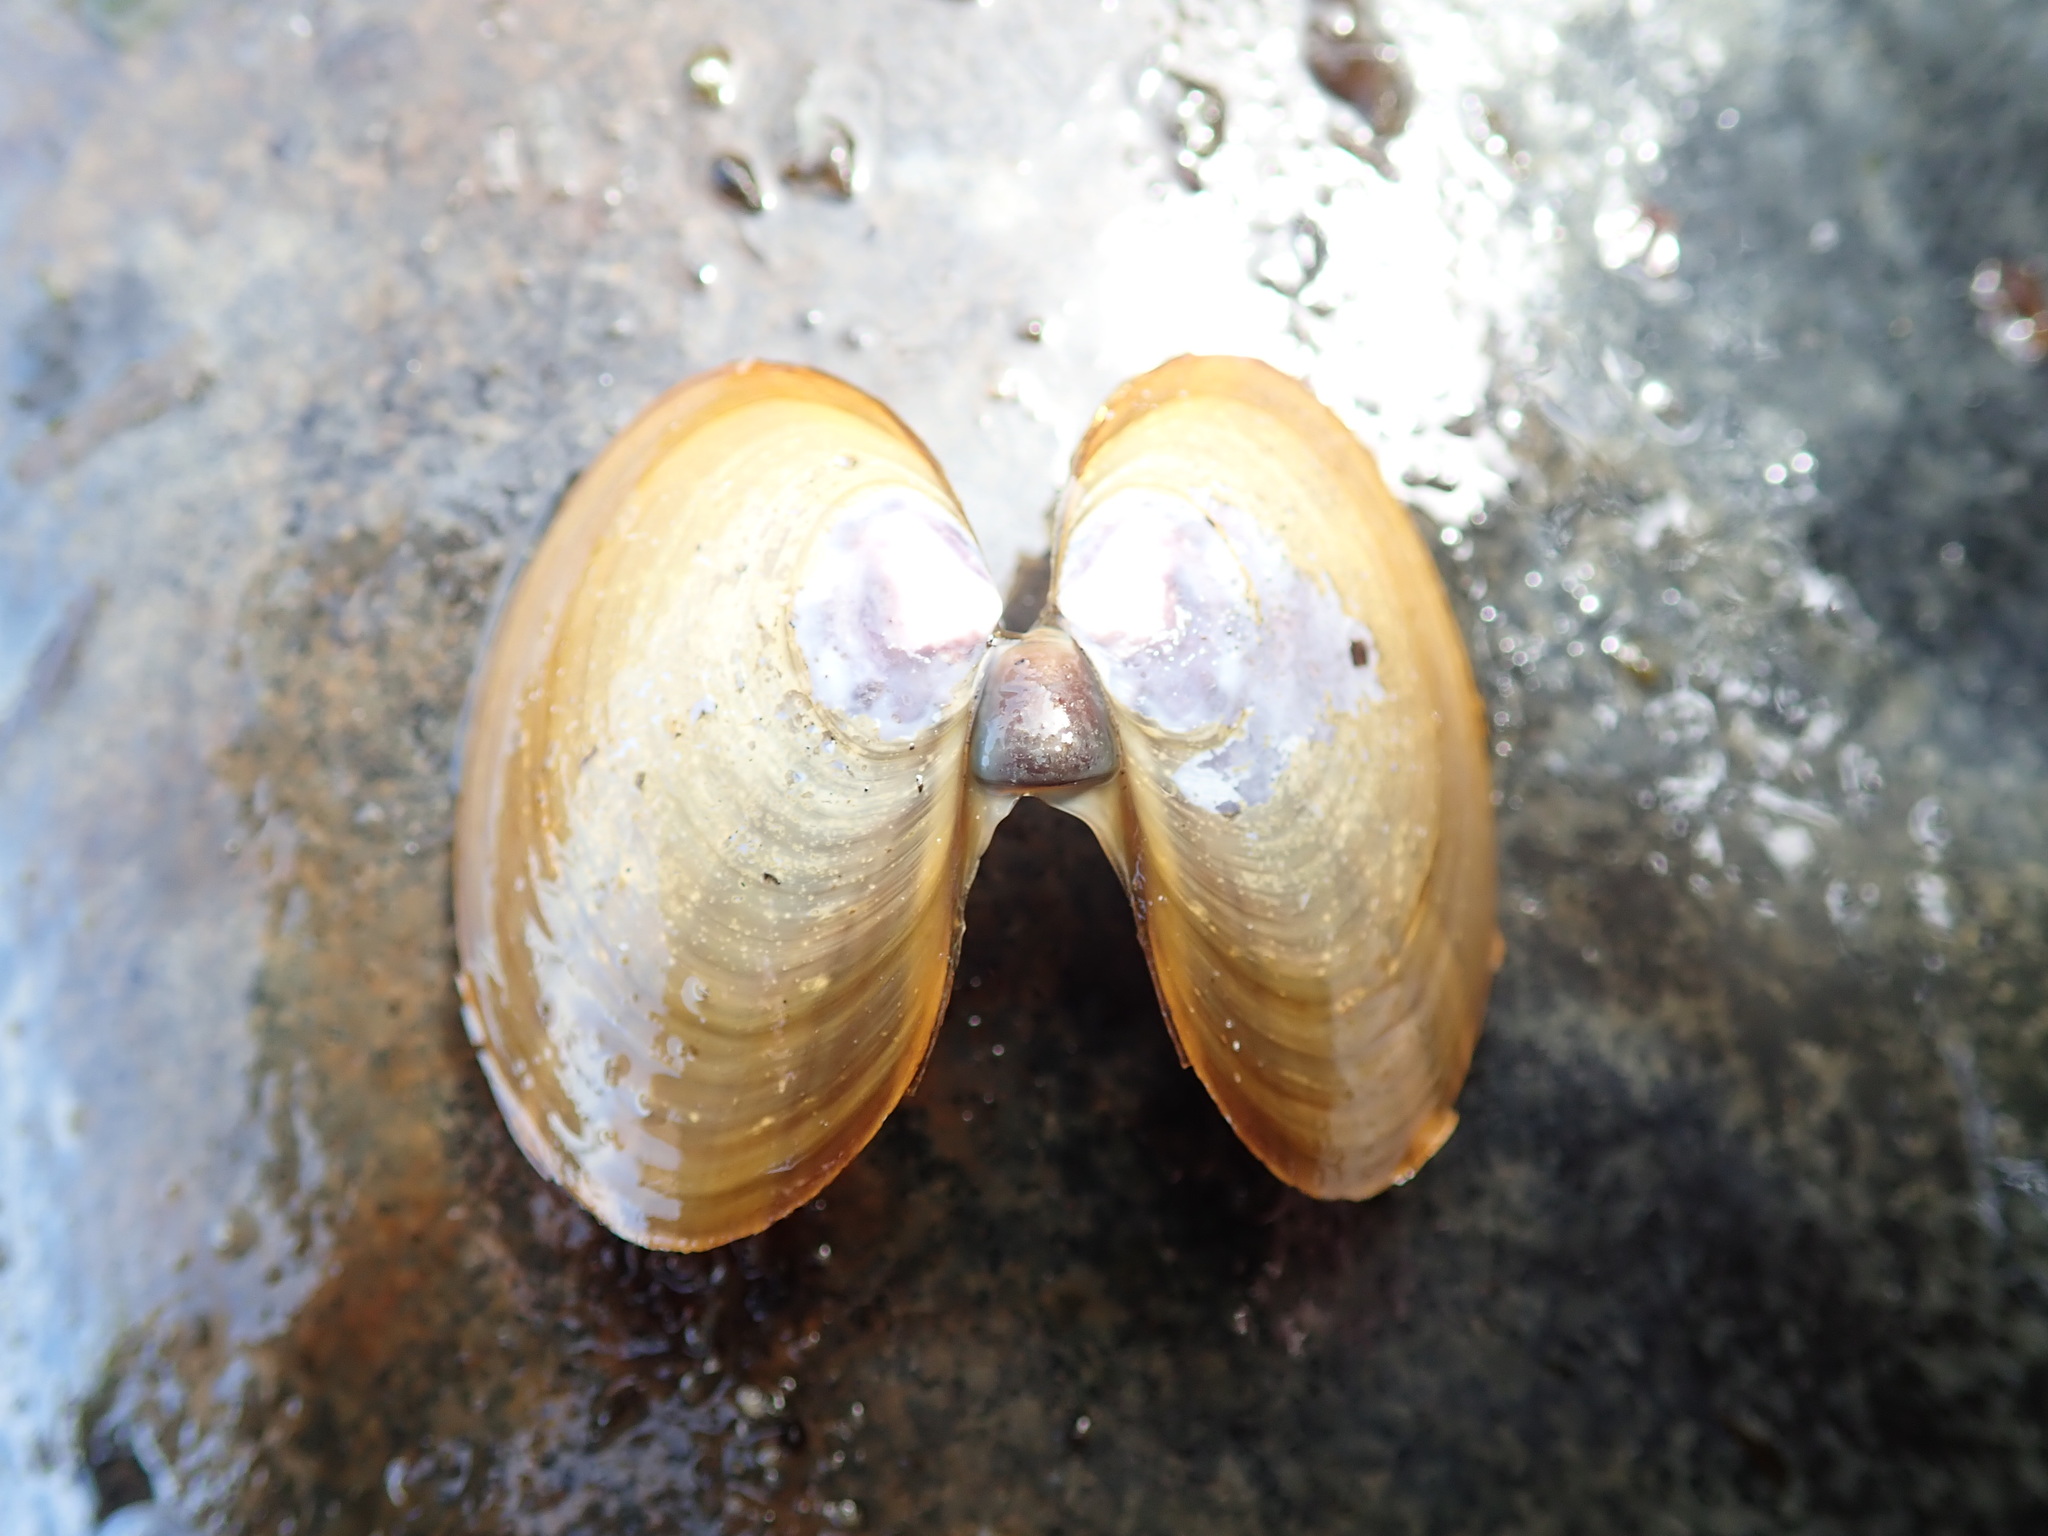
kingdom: Animalia
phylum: Mollusca
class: Bivalvia
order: Cardiida
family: Psammobiidae
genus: Nuttallia
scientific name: Nuttallia obscurata
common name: Purple mahogany-clam
